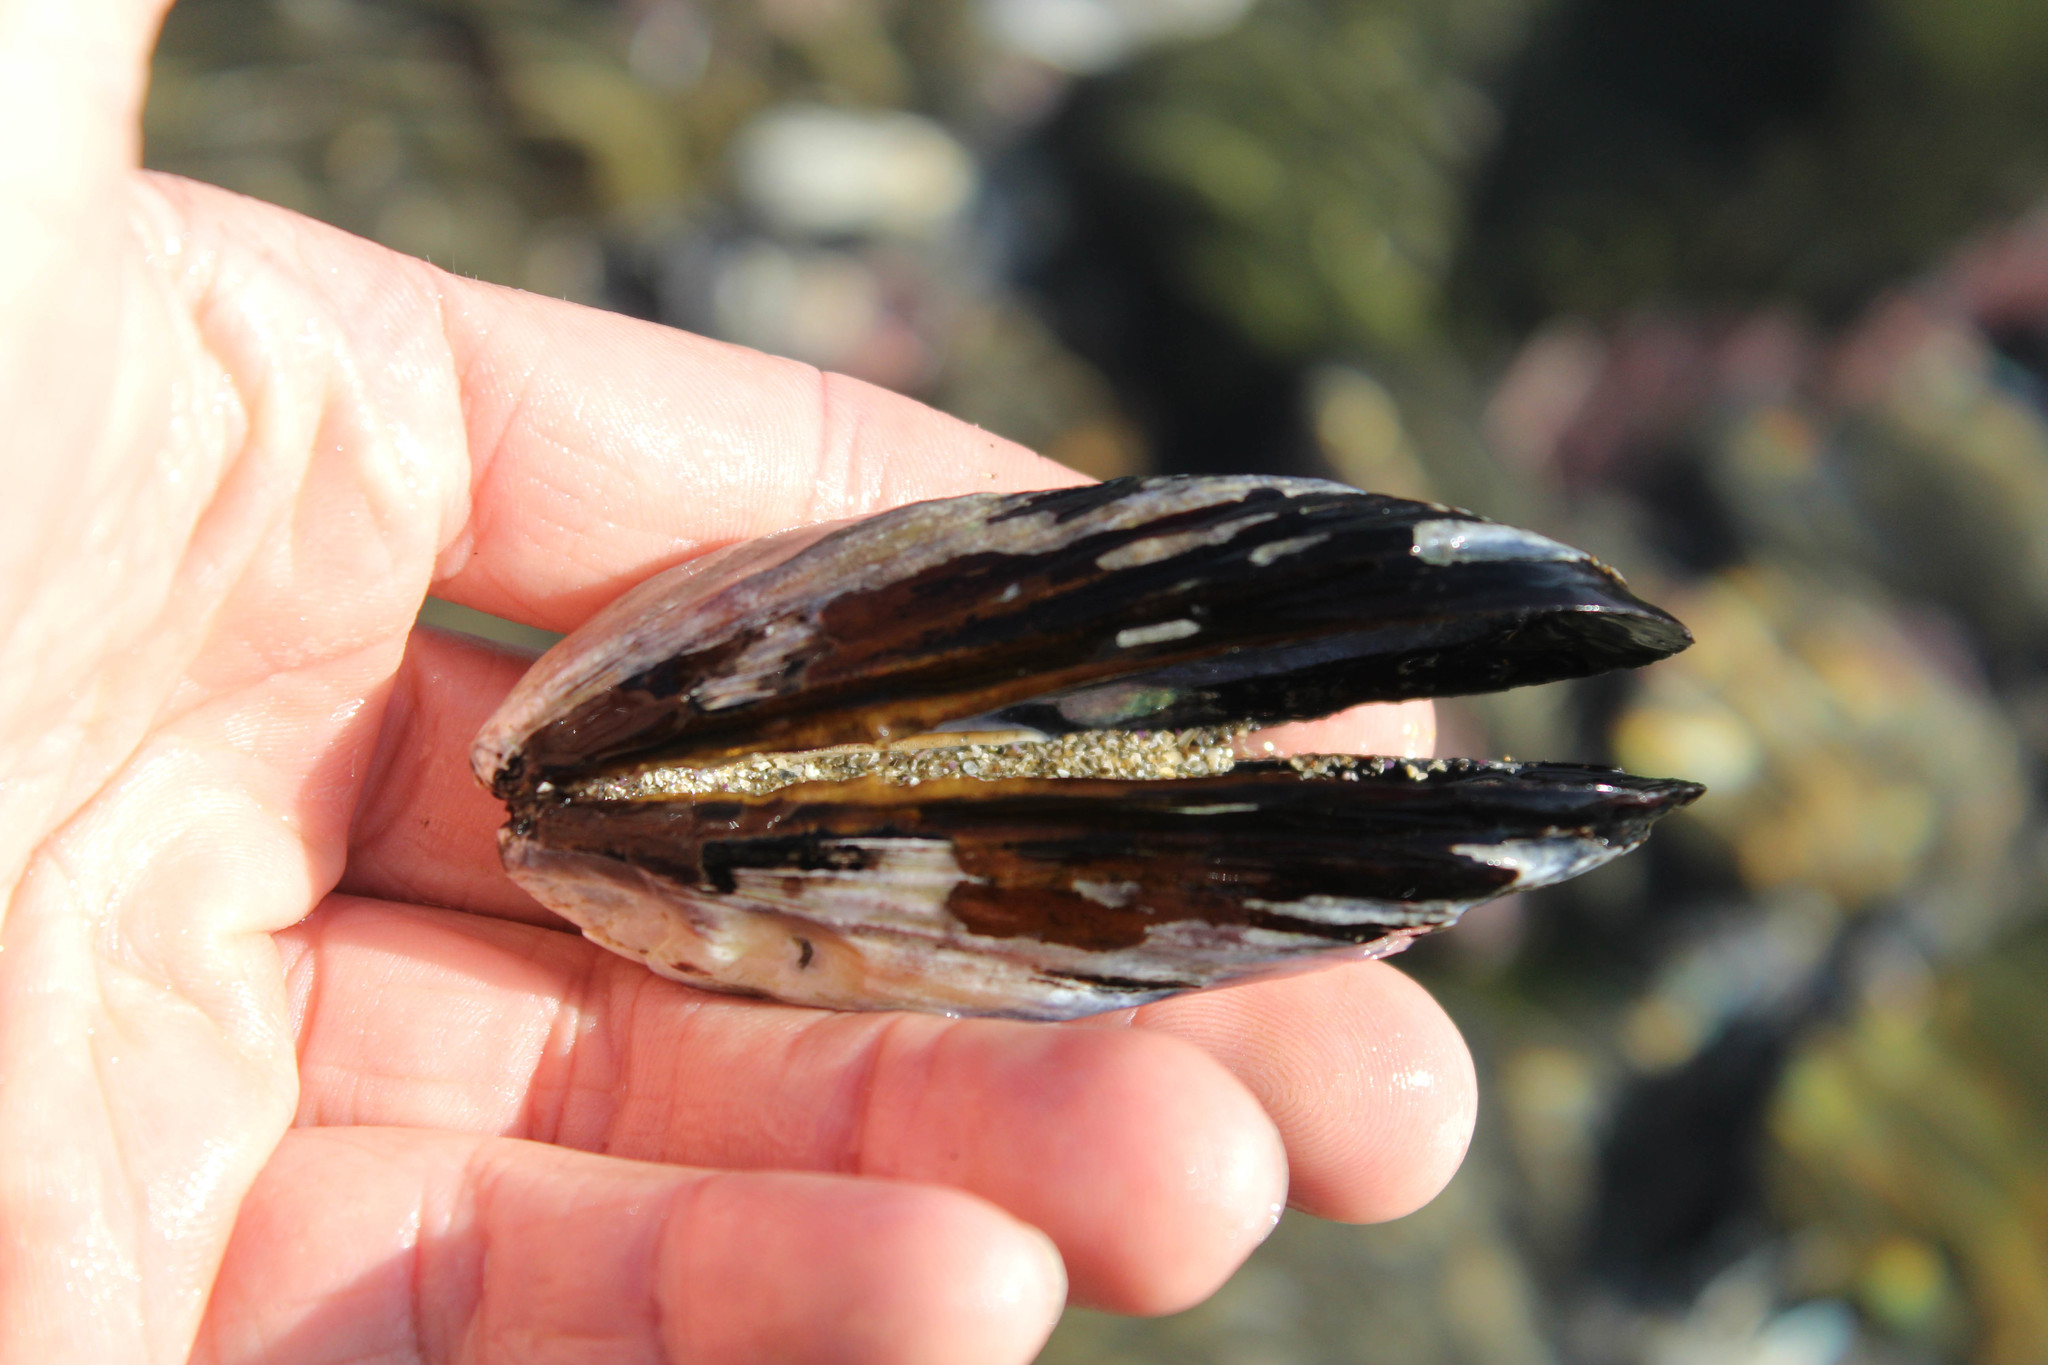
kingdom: Animalia
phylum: Mollusca
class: Bivalvia
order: Mytilida
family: Mytilidae
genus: Mytilus
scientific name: Mytilus californianus
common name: California mussel
